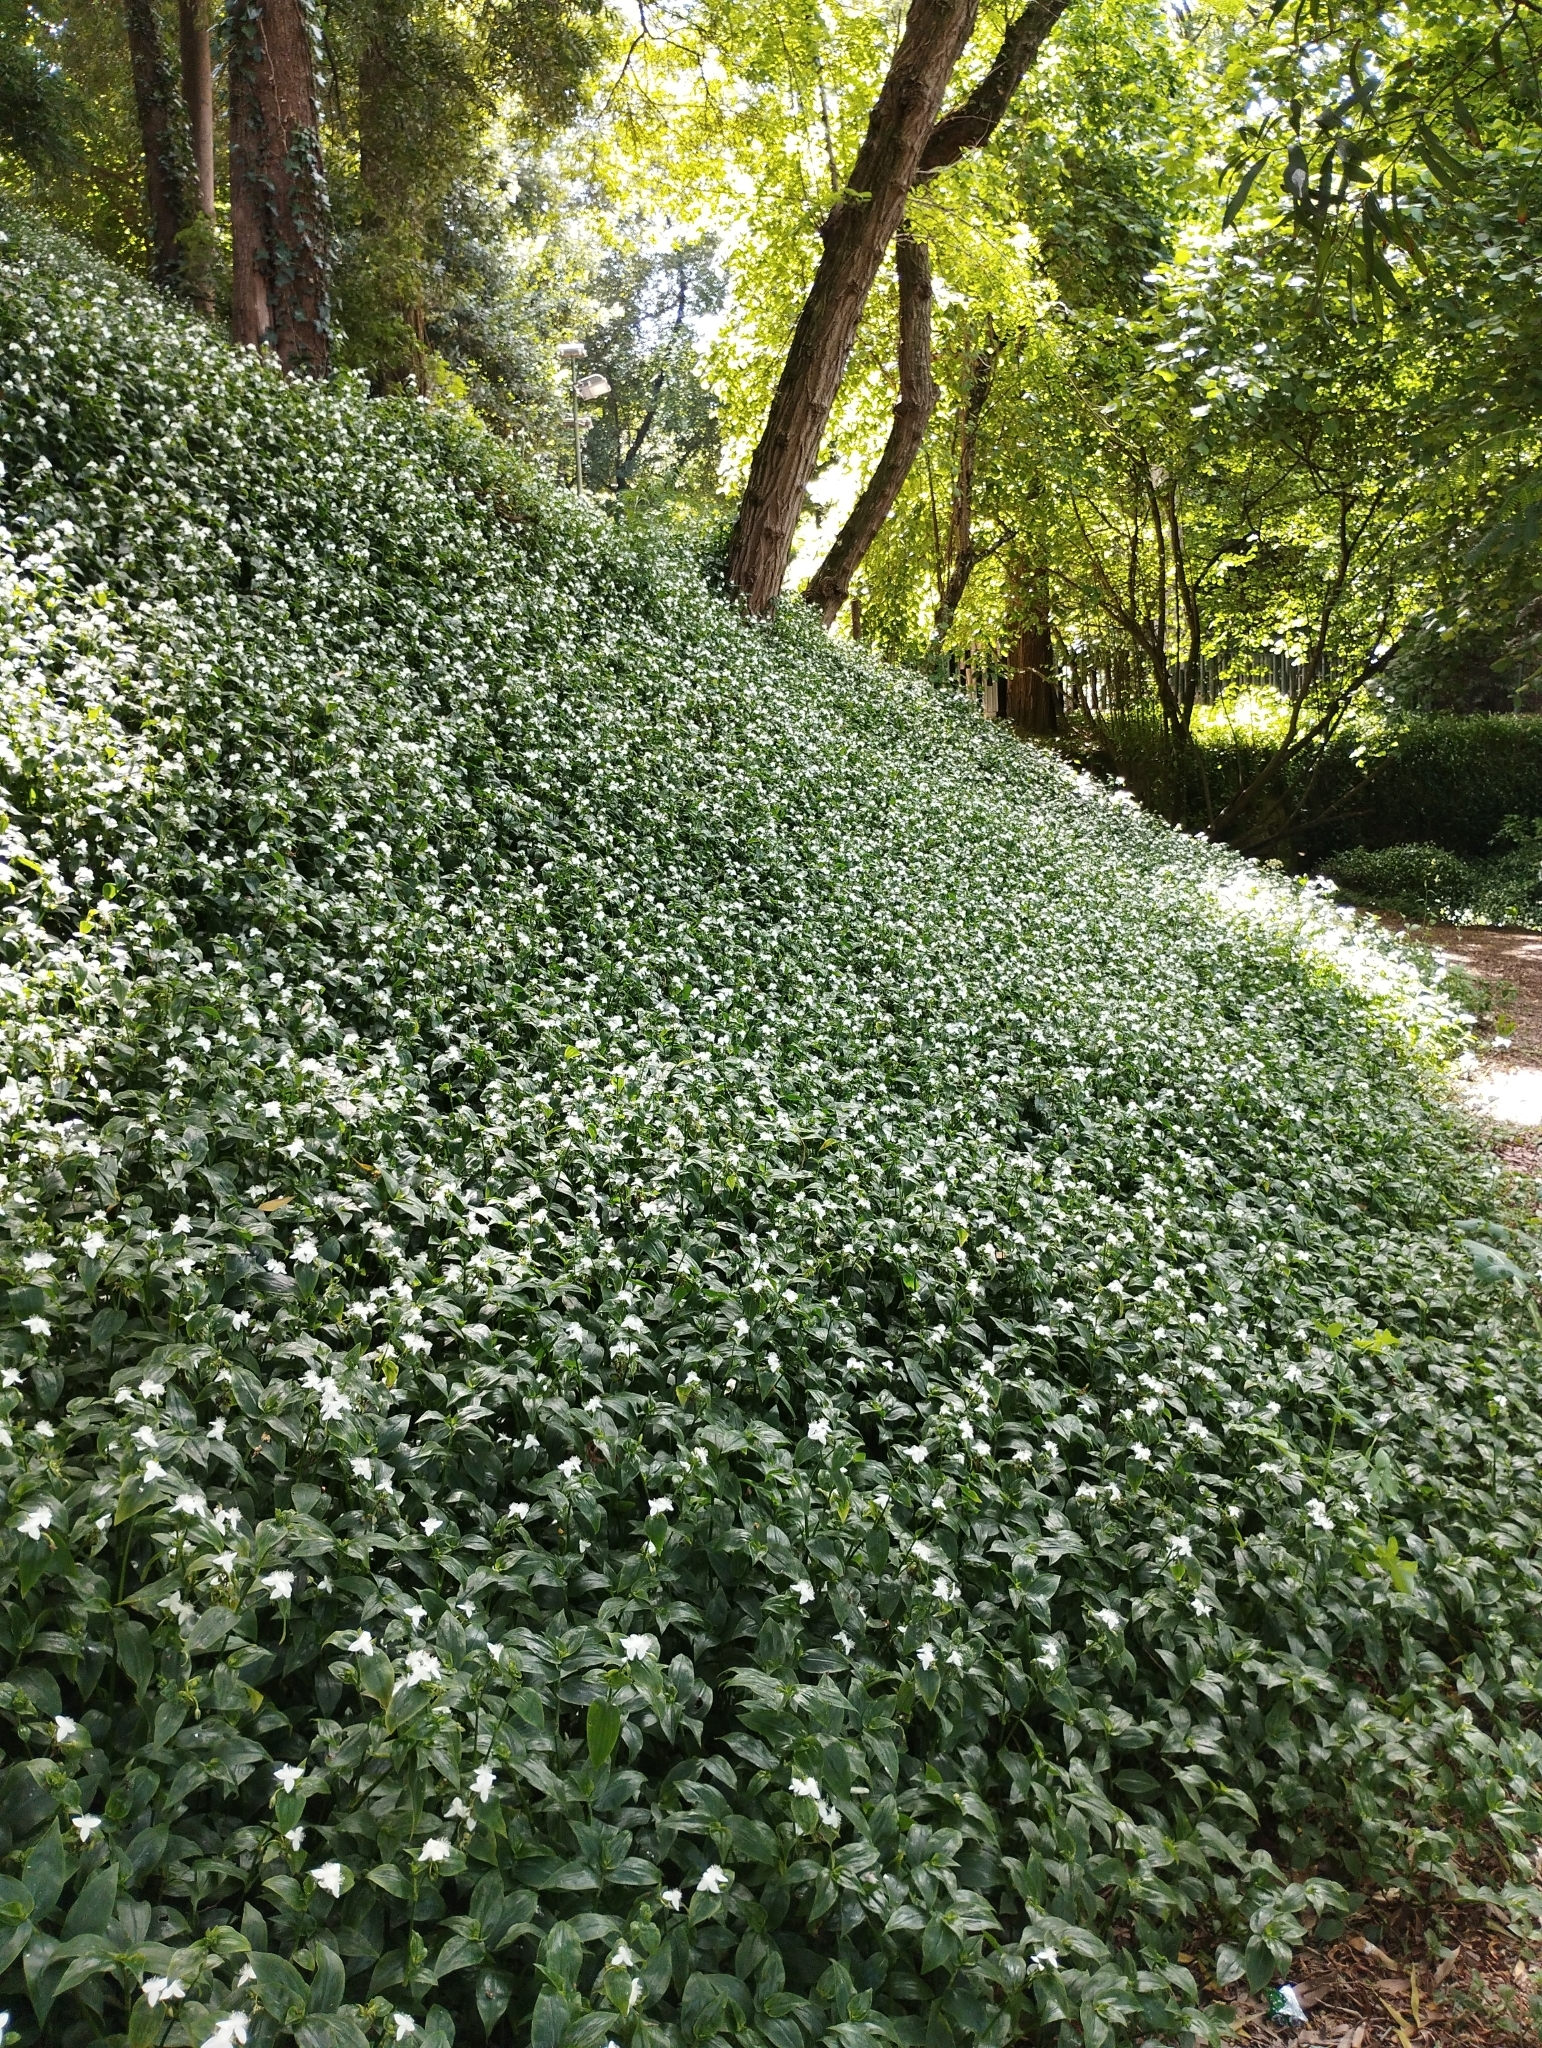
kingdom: Plantae
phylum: Tracheophyta
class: Liliopsida
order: Commelinales
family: Commelinaceae
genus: Tradescantia
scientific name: Tradescantia fluminensis
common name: Wandering-jew
